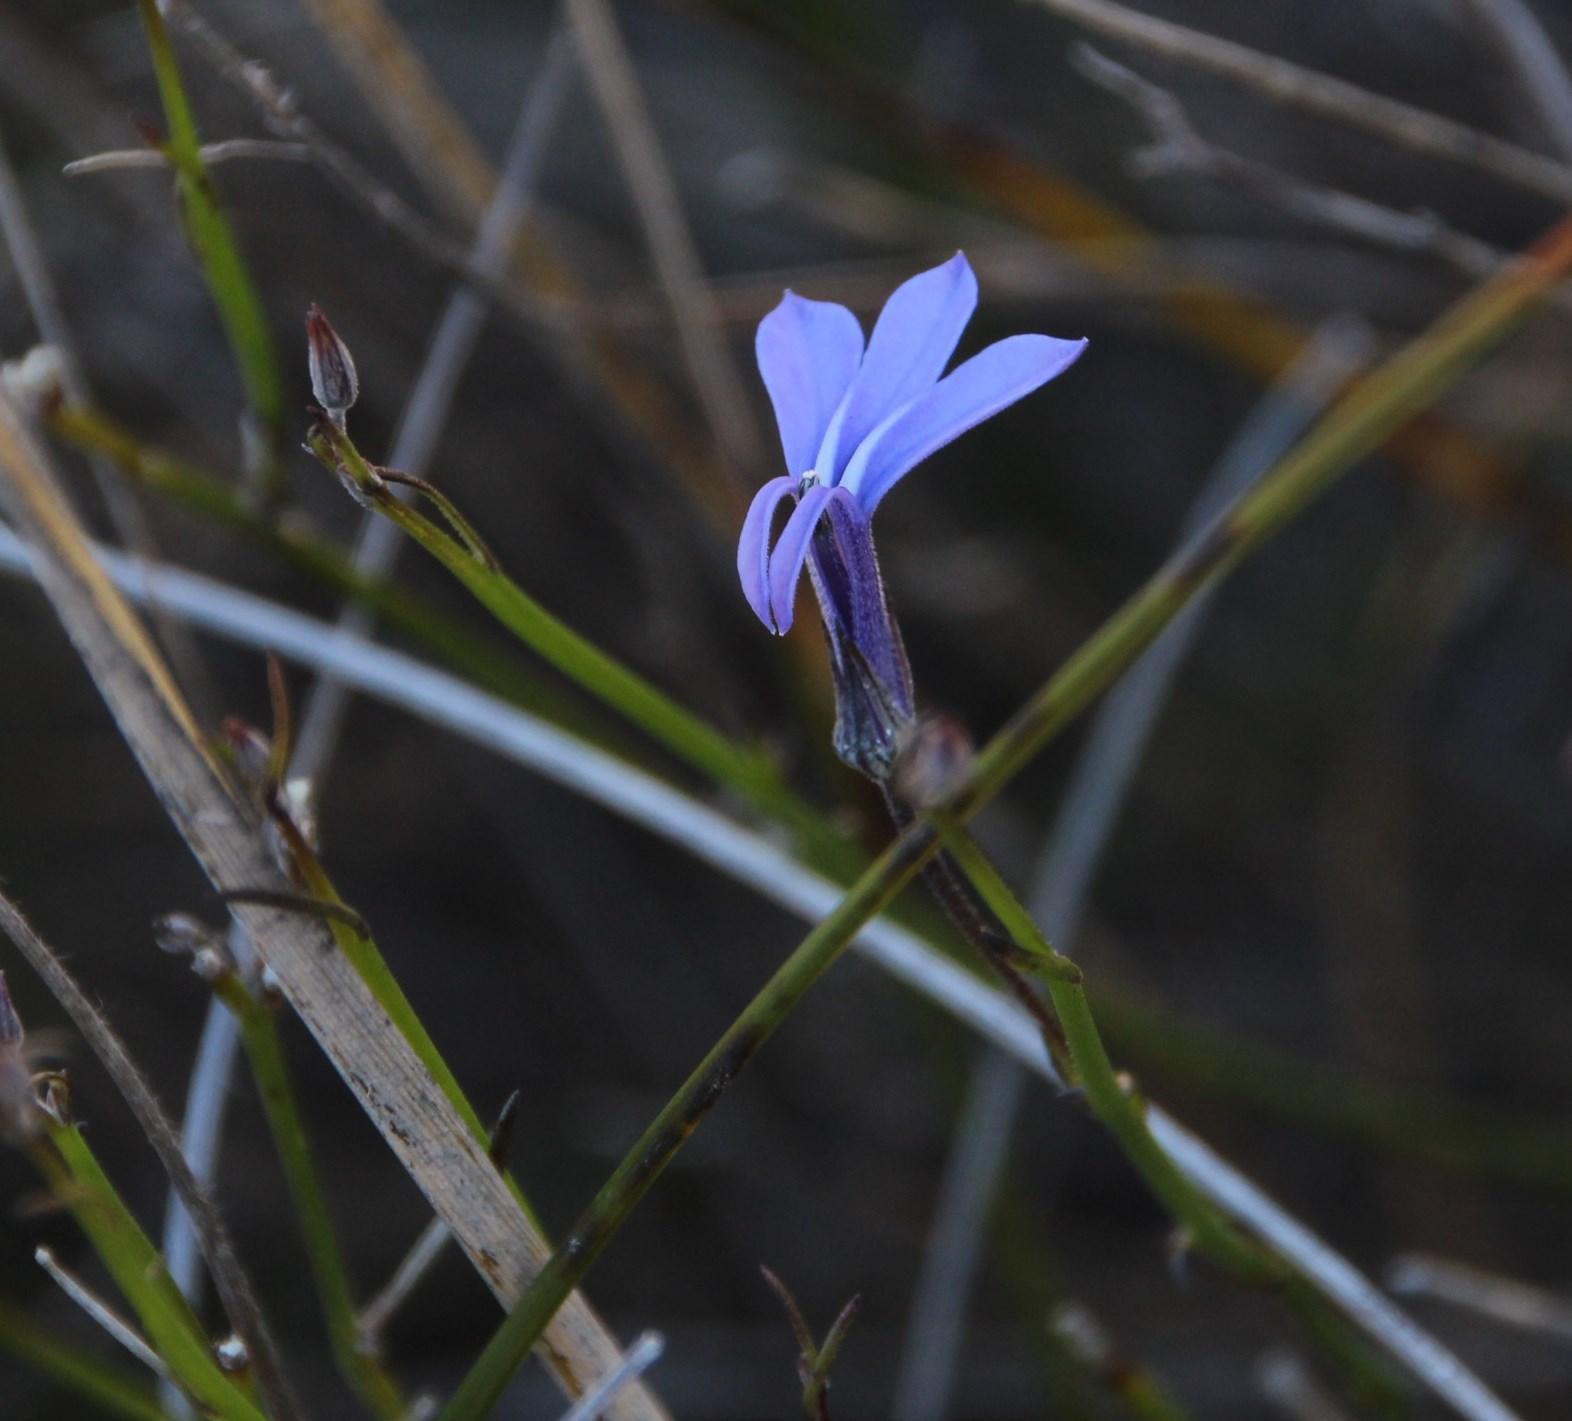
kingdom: Plantae
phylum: Tracheophyta
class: Magnoliopsida
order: Asterales
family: Campanulaceae
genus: Lobelia
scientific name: Lobelia linearis
